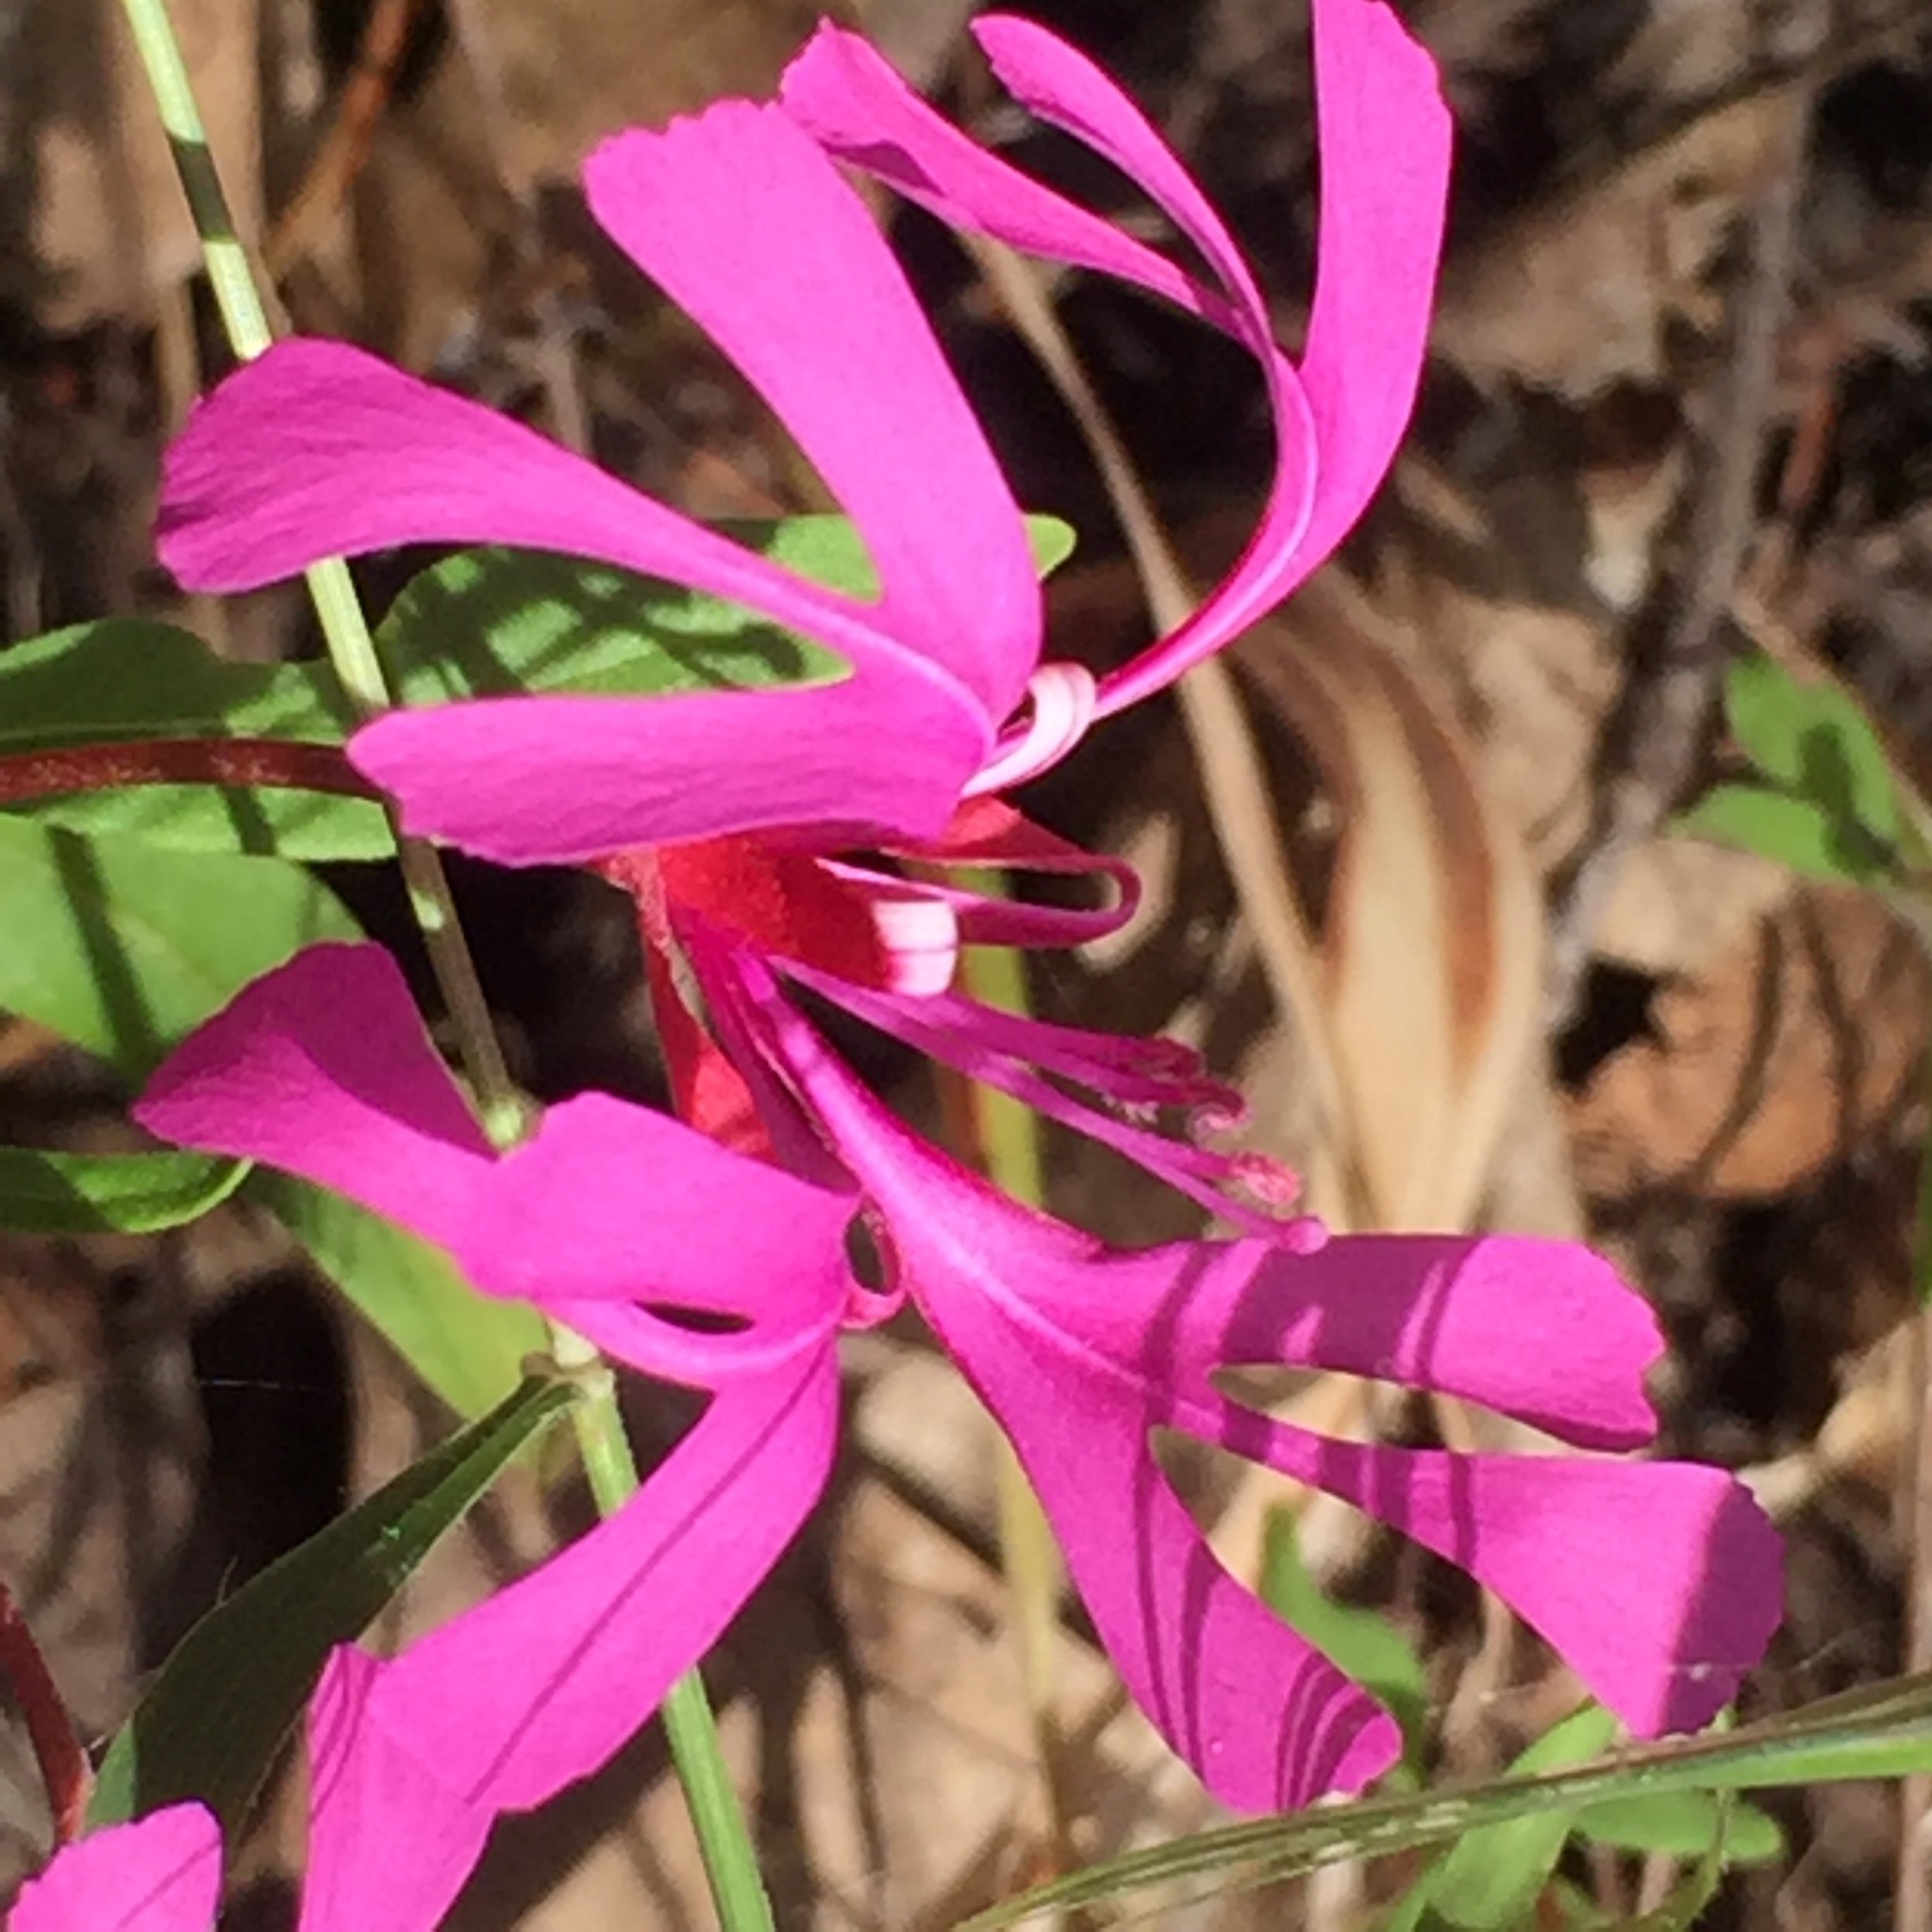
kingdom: Plantae
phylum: Tracheophyta
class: Magnoliopsida
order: Myrtales
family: Onagraceae
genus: Clarkia
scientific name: Clarkia concinna
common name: Red-ribbons
